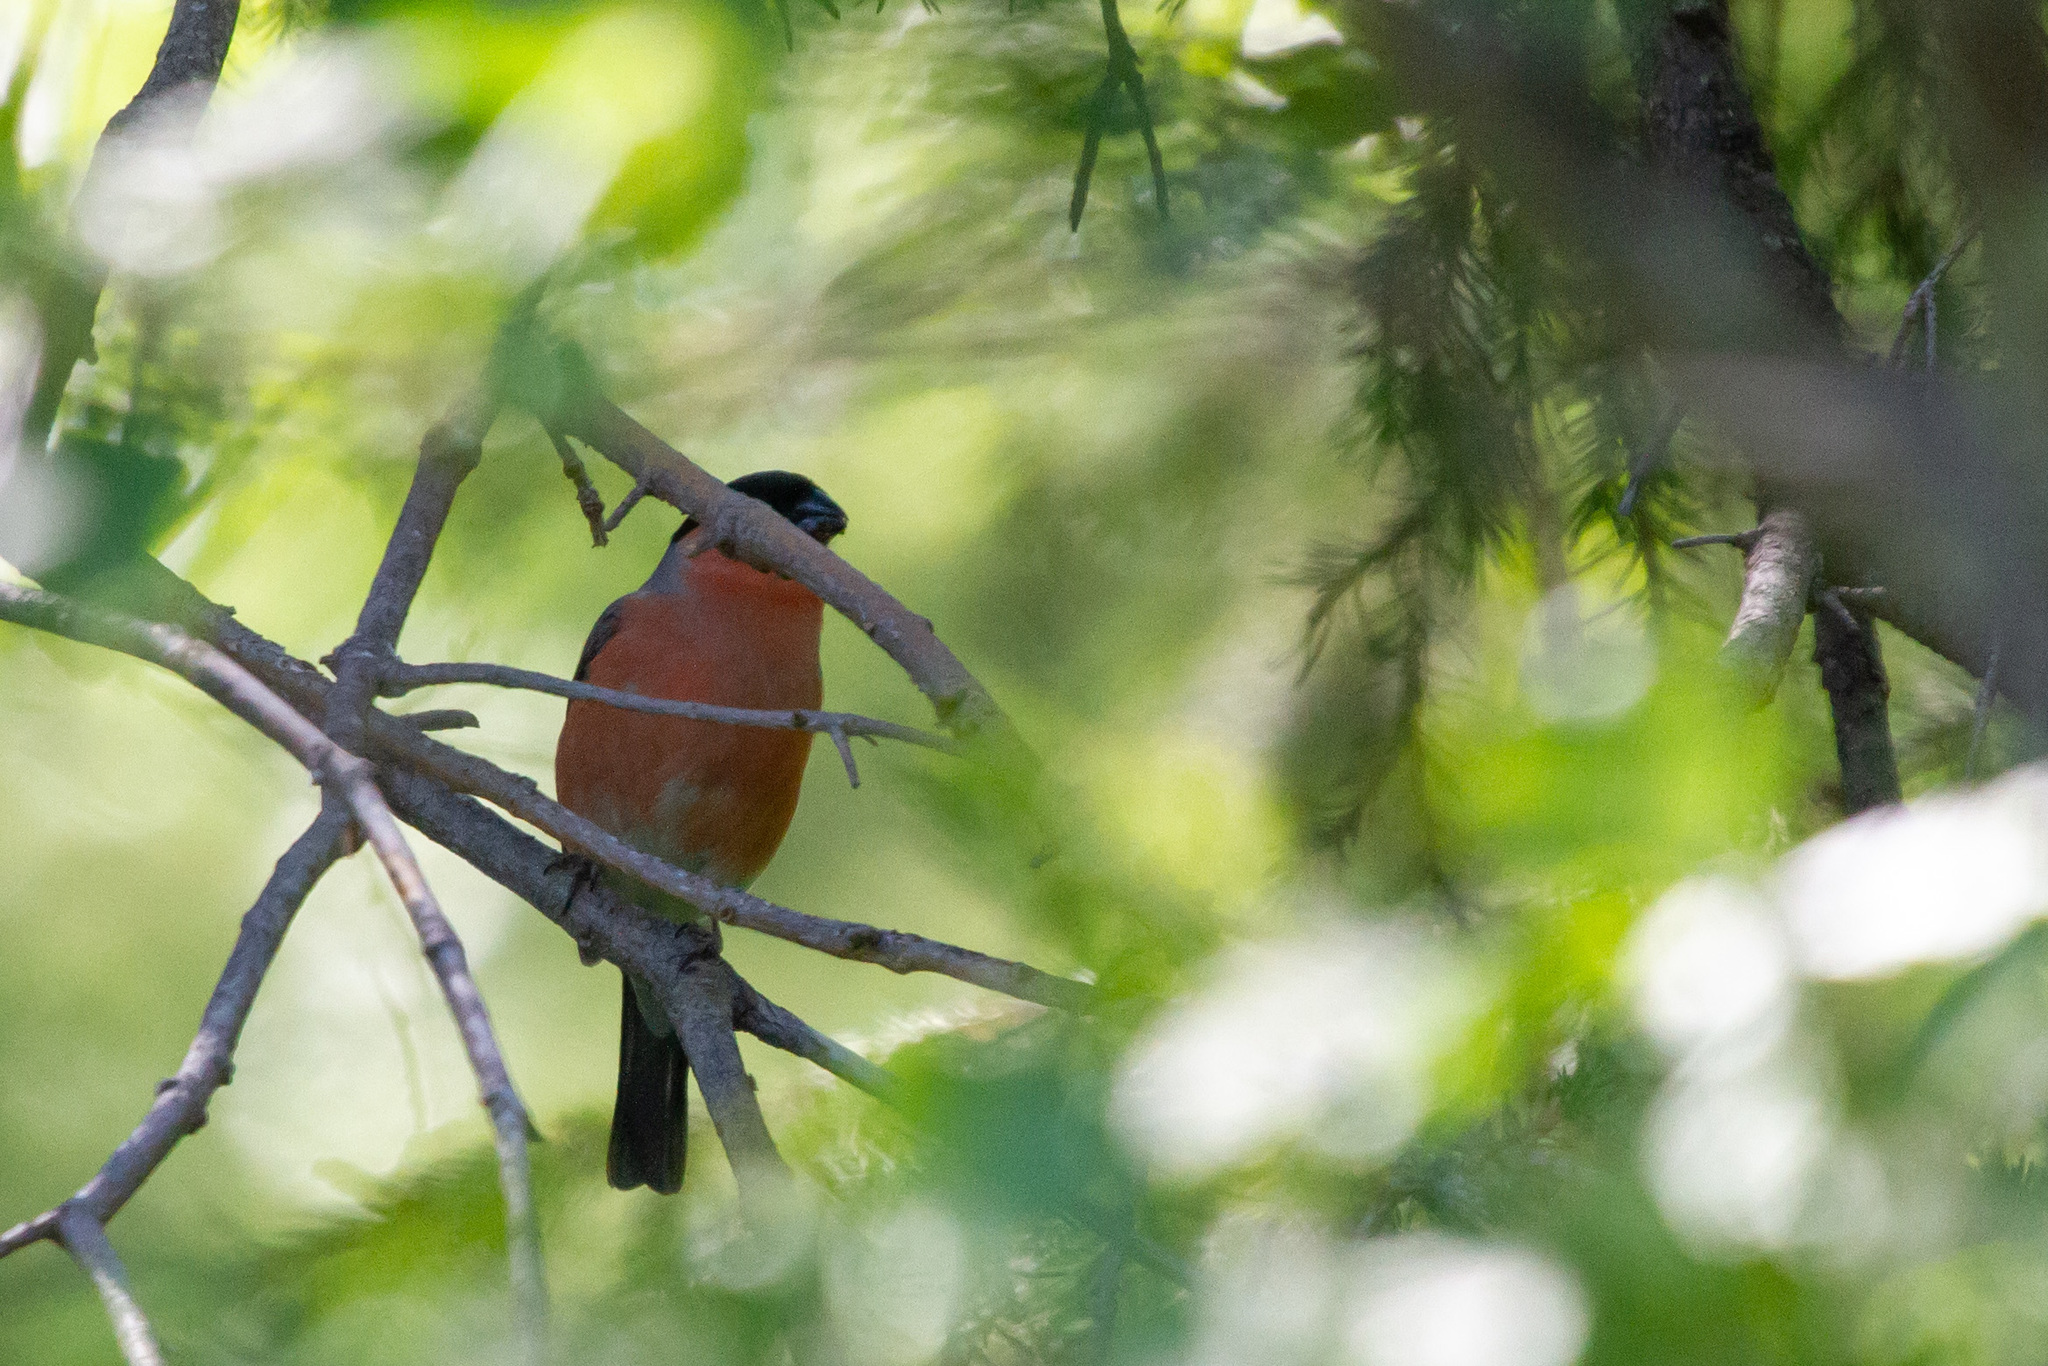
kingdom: Animalia
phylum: Chordata
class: Aves
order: Passeriformes
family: Fringillidae
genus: Pyrrhula
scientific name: Pyrrhula pyrrhula
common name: Eurasian bullfinch
